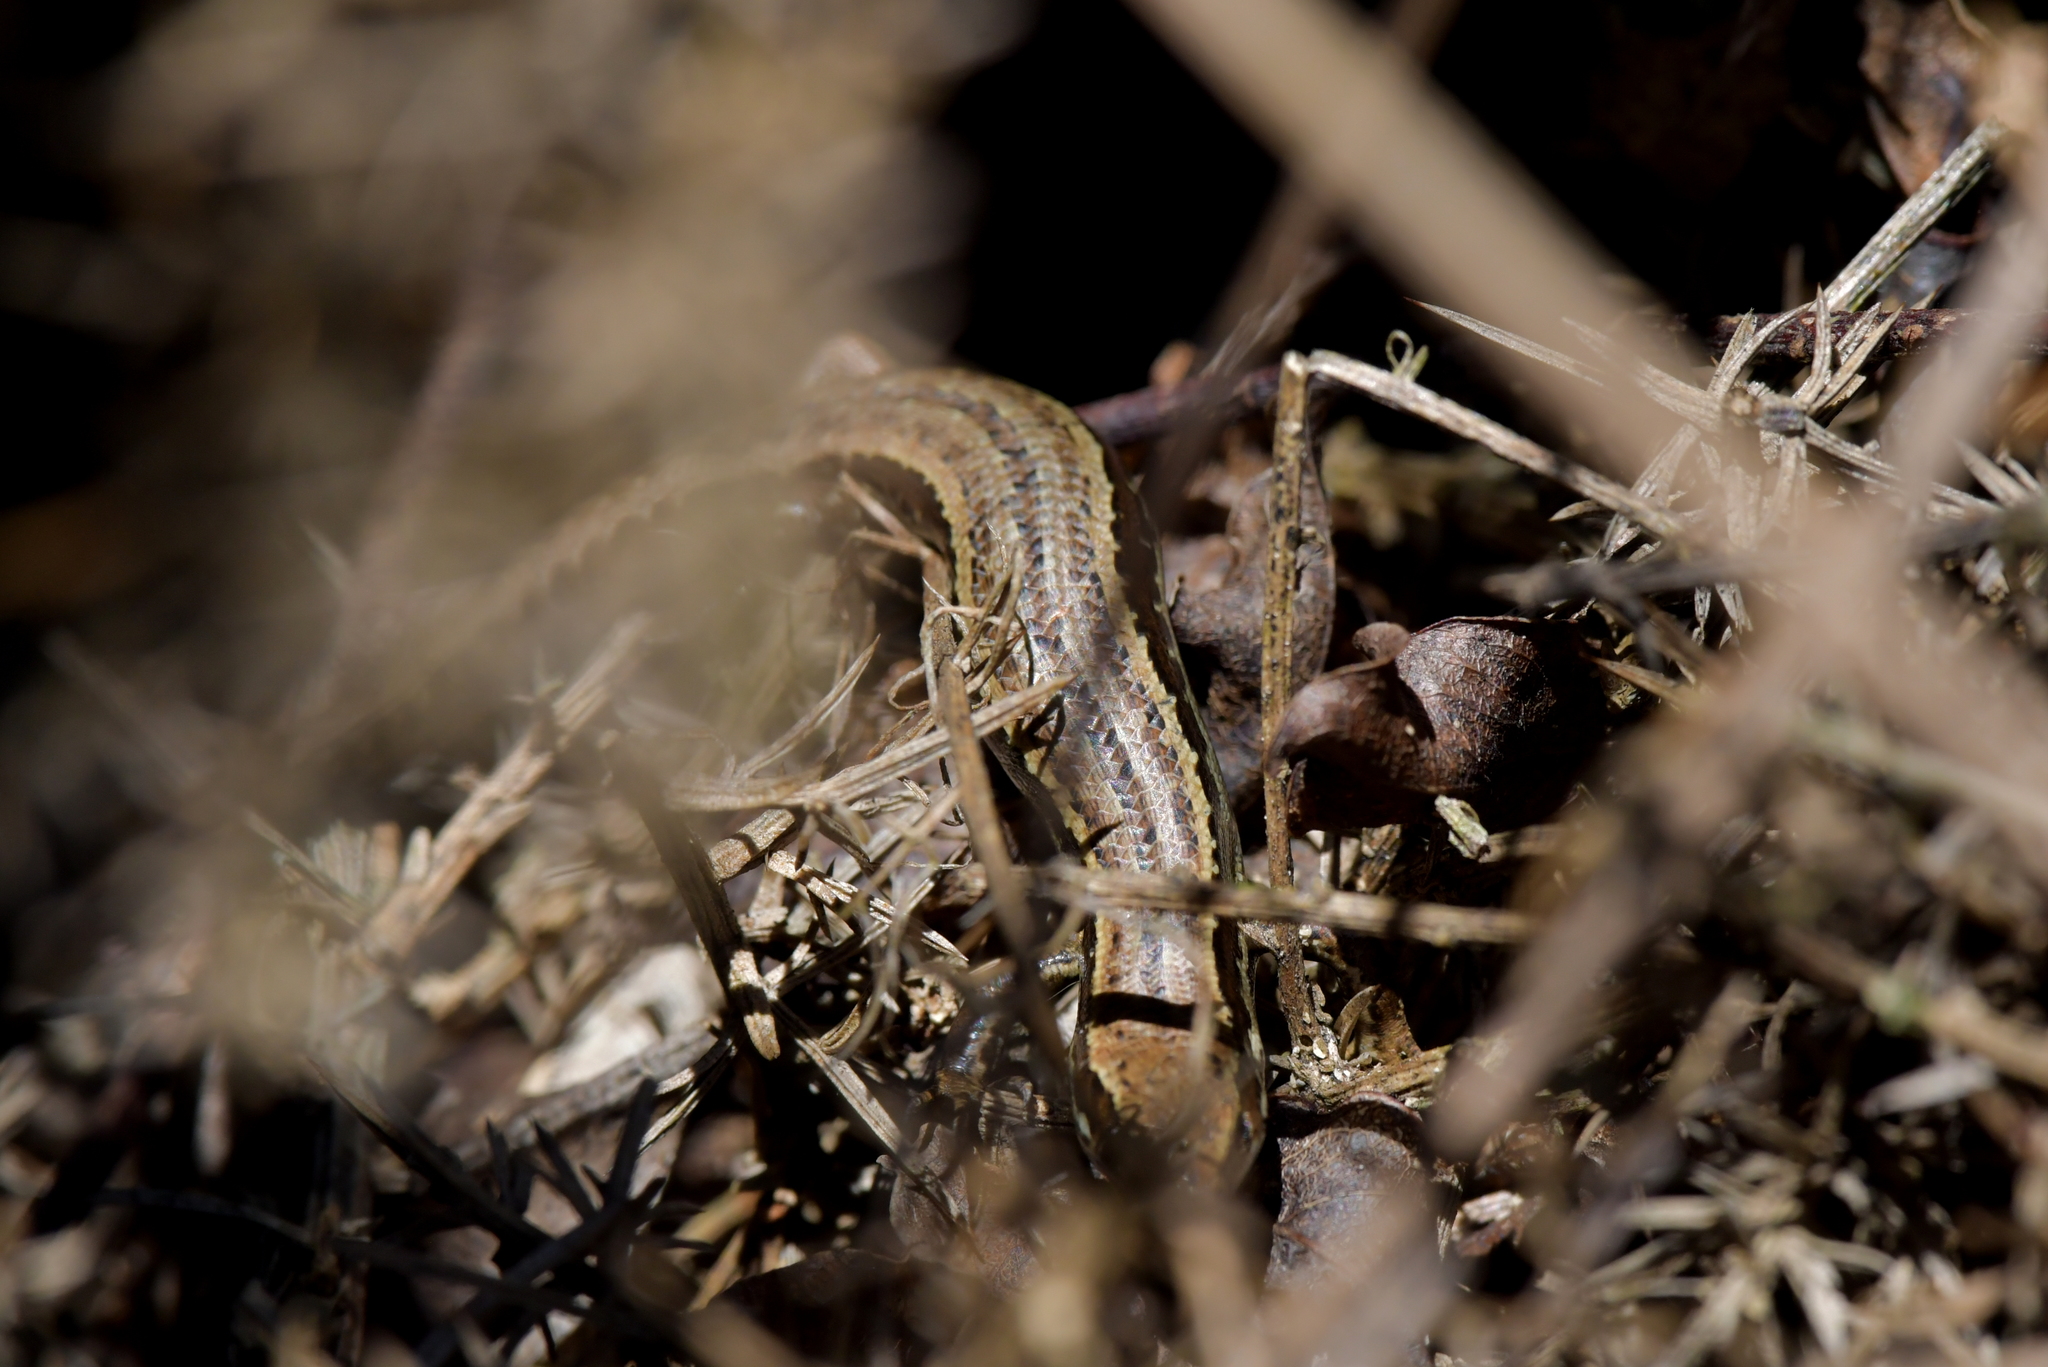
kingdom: Animalia
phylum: Chordata
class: Squamata
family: Scincidae
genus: Oligosoma
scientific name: Oligosoma polychroma
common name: Common new zealand skink
